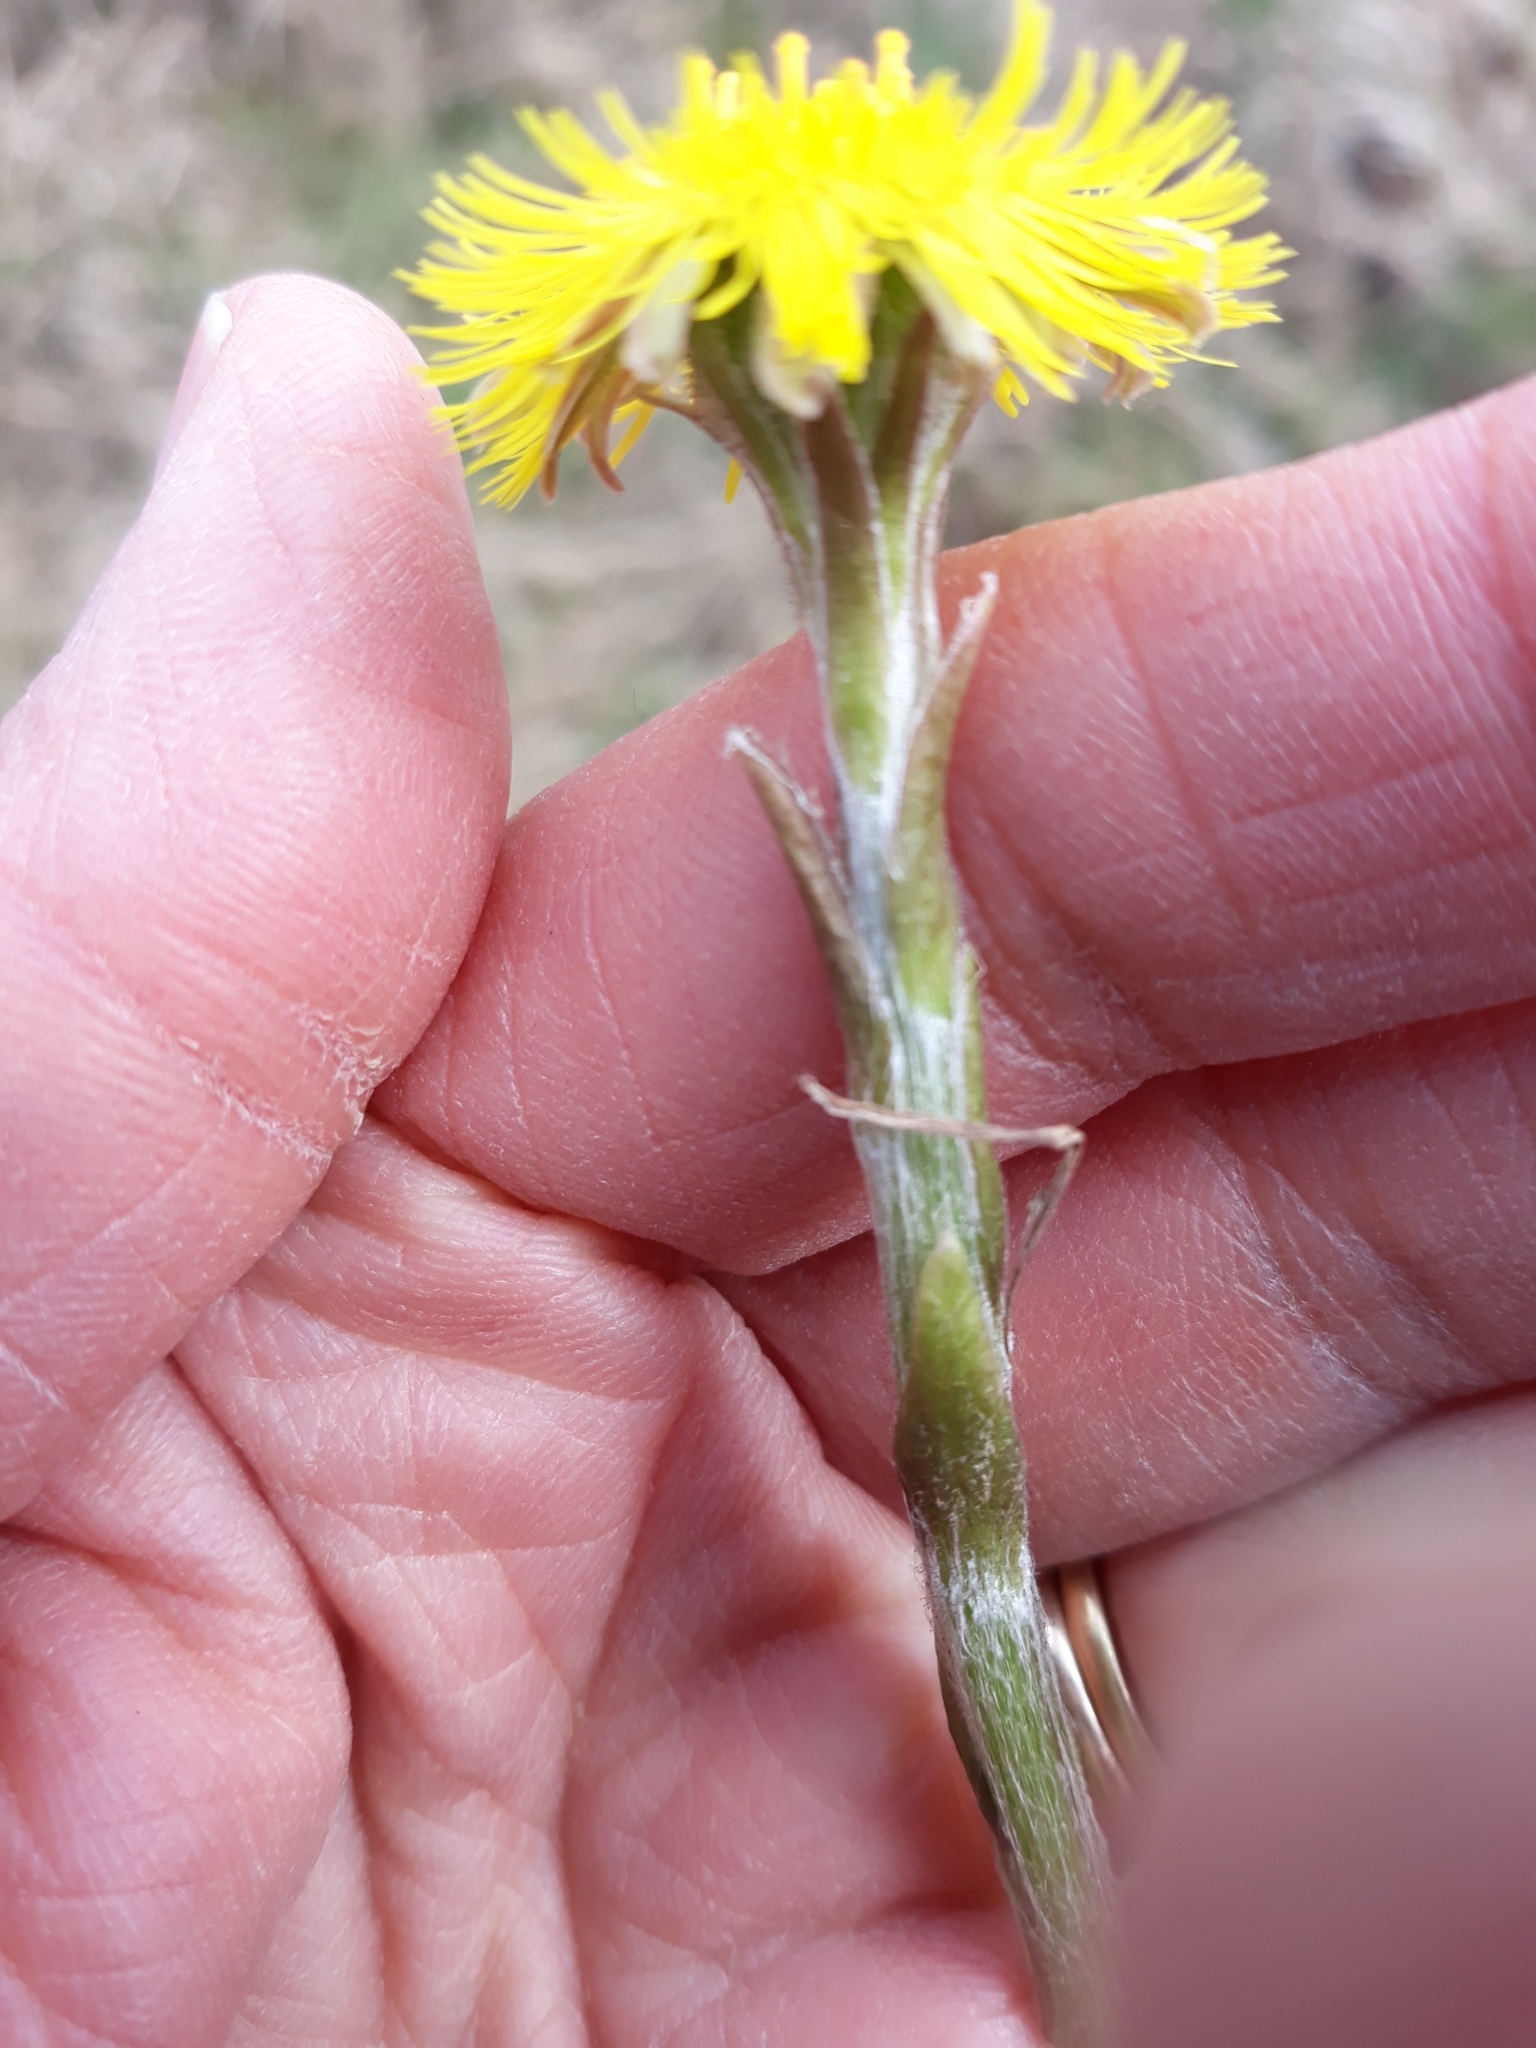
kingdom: Plantae
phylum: Tracheophyta
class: Magnoliopsida
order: Asterales
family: Asteraceae
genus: Tussilago
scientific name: Tussilago farfara
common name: Coltsfoot
